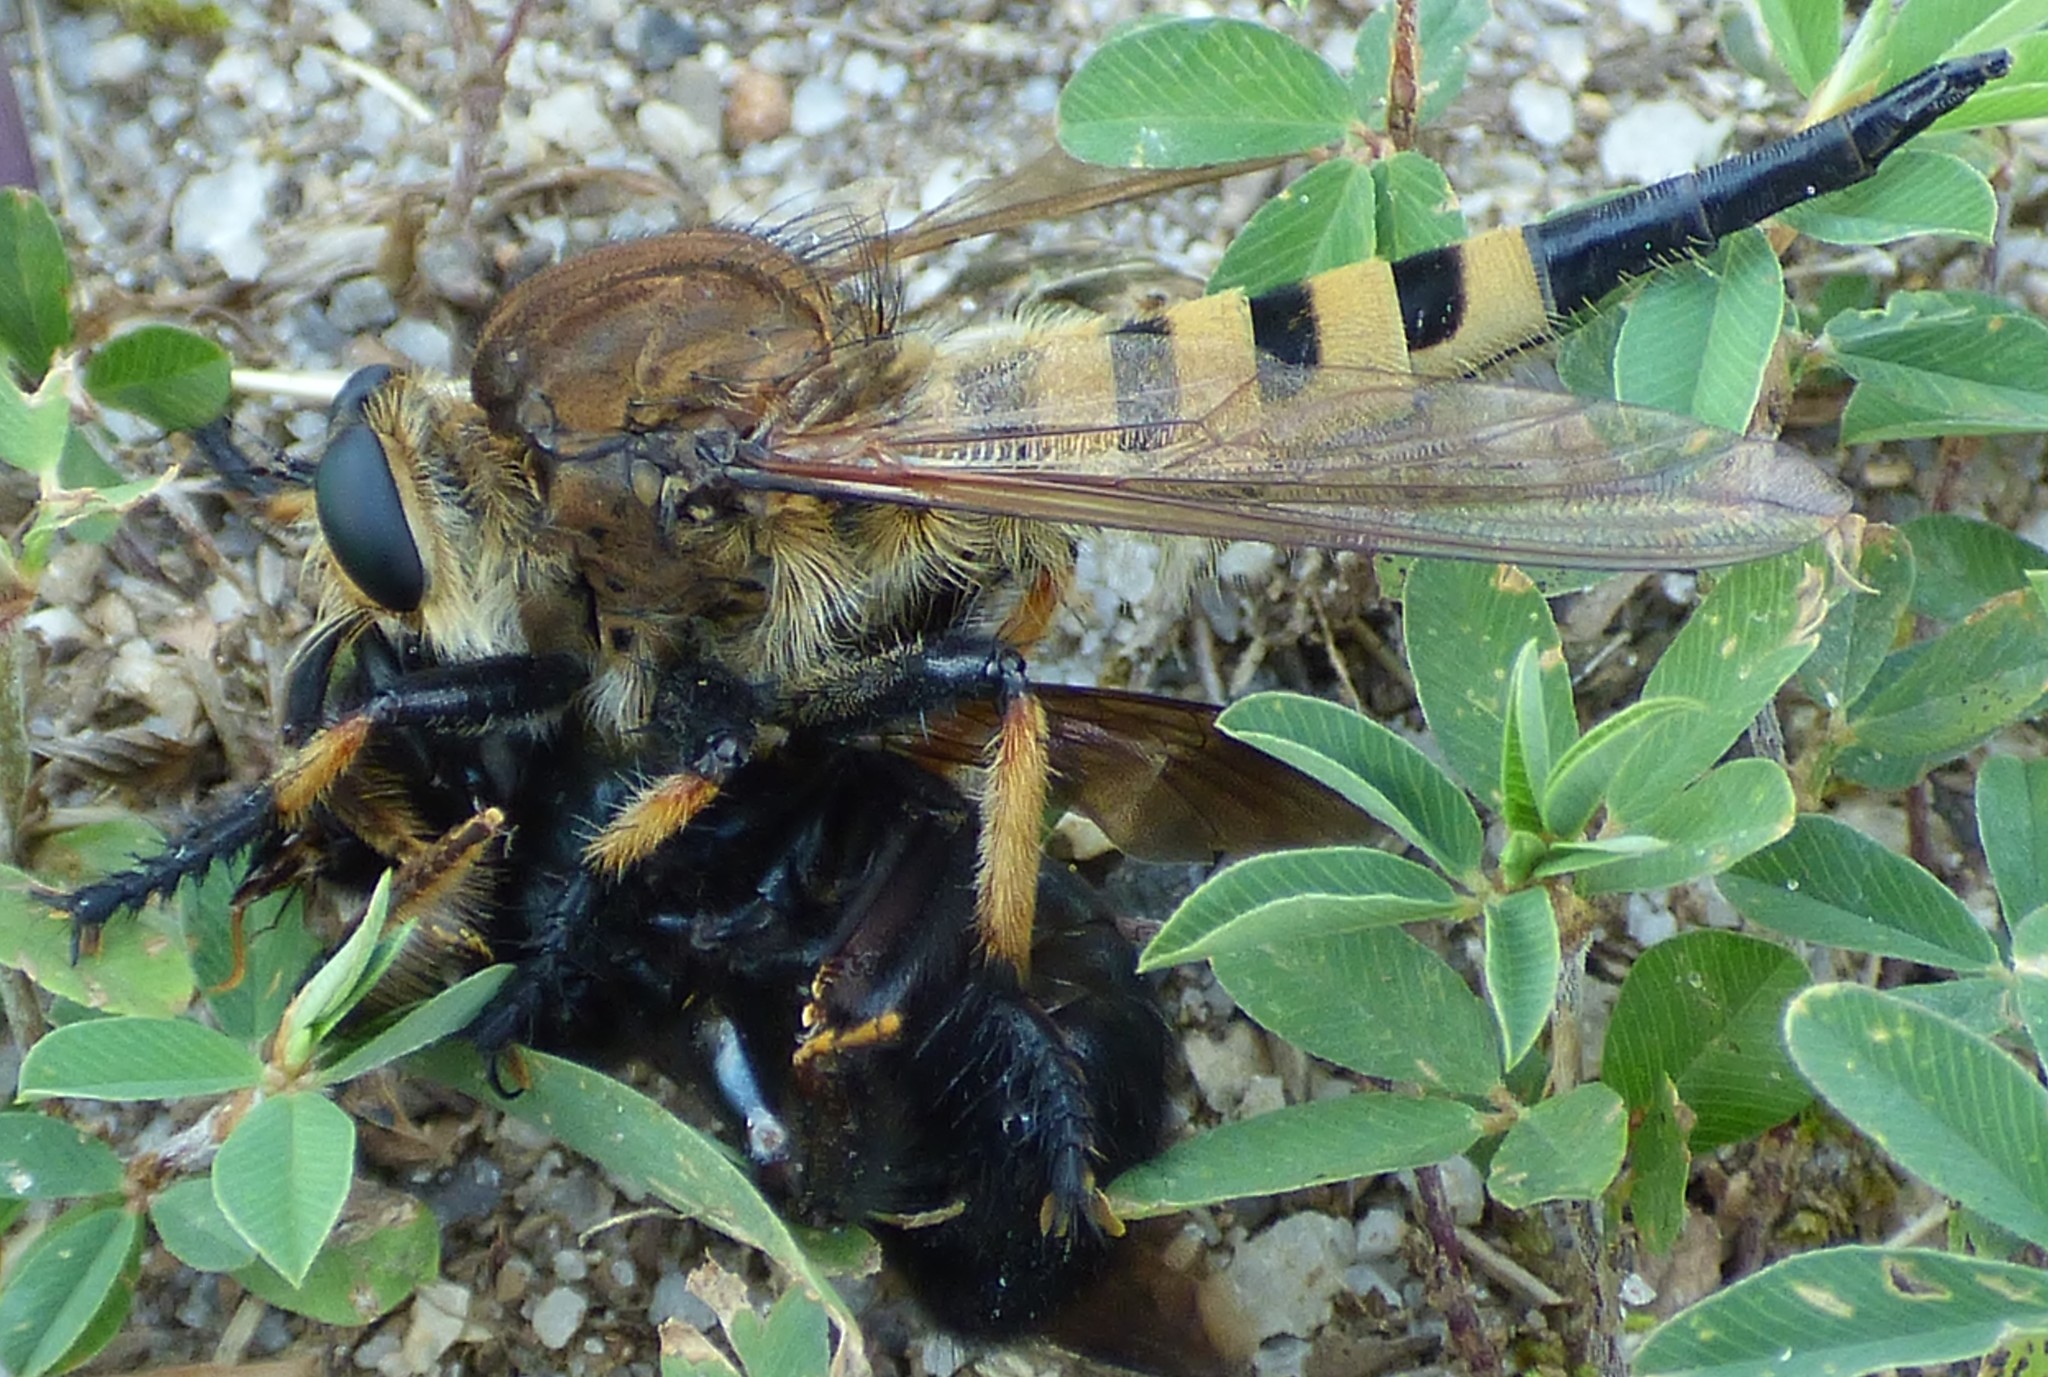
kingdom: Animalia
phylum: Arthropoda
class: Insecta
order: Diptera
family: Asilidae
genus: Promachus
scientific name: Promachus rufipes
